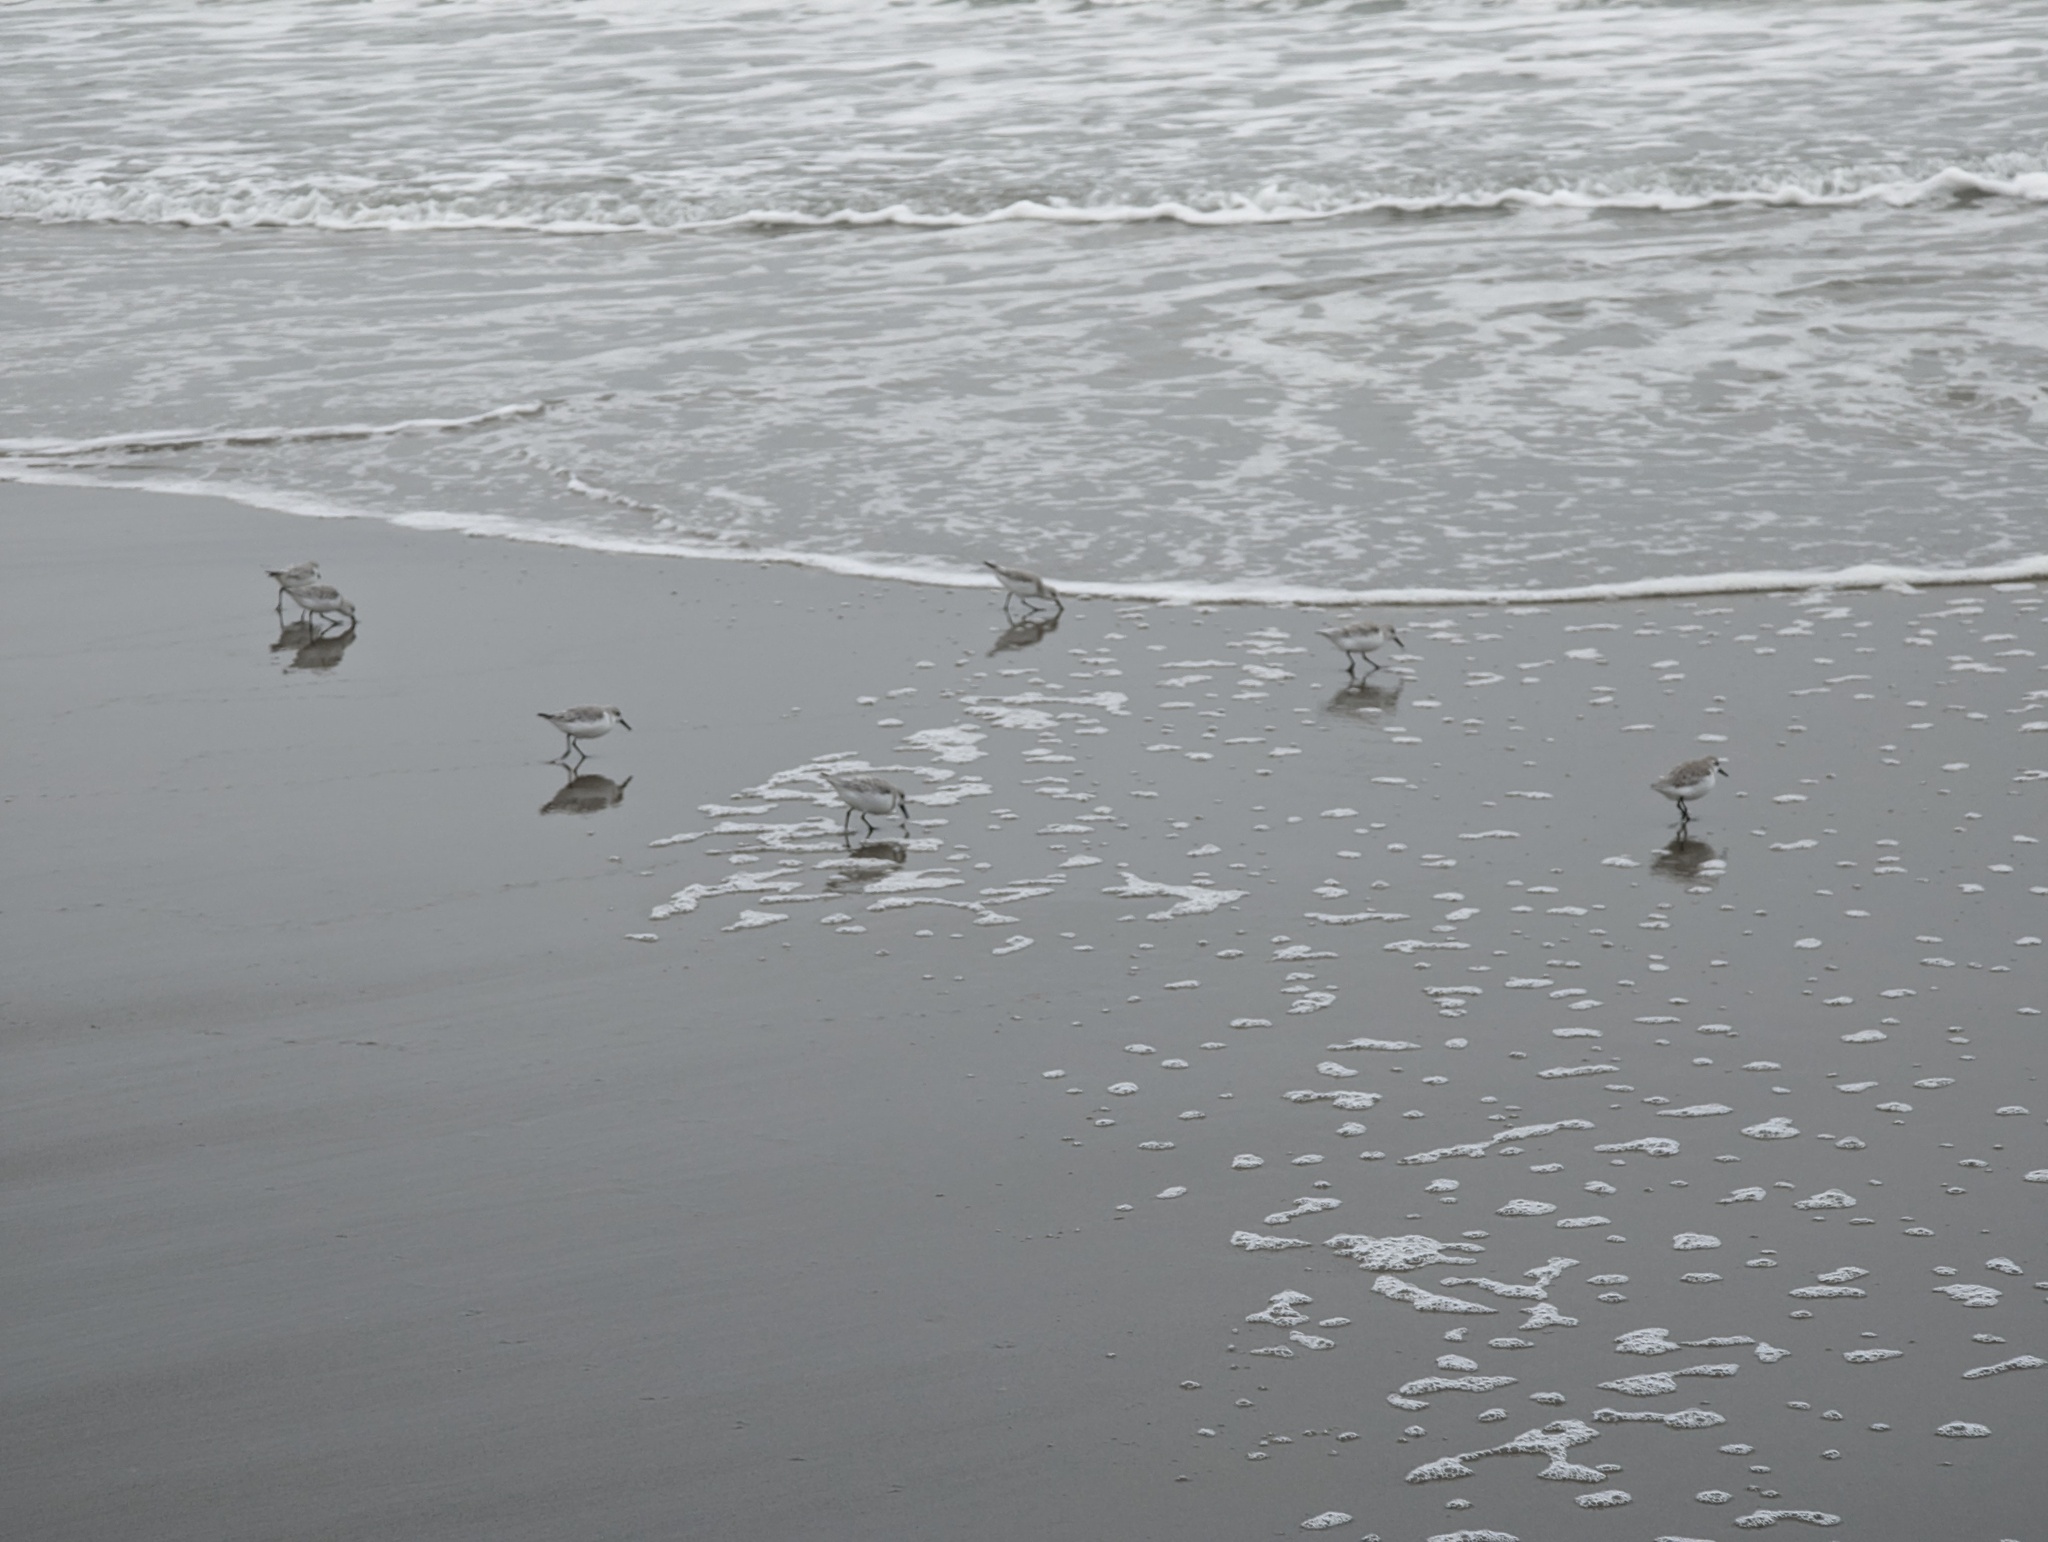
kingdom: Animalia
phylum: Chordata
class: Aves
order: Charadriiformes
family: Scolopacidae
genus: Calidris
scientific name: Calidris alba
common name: Sanderling
